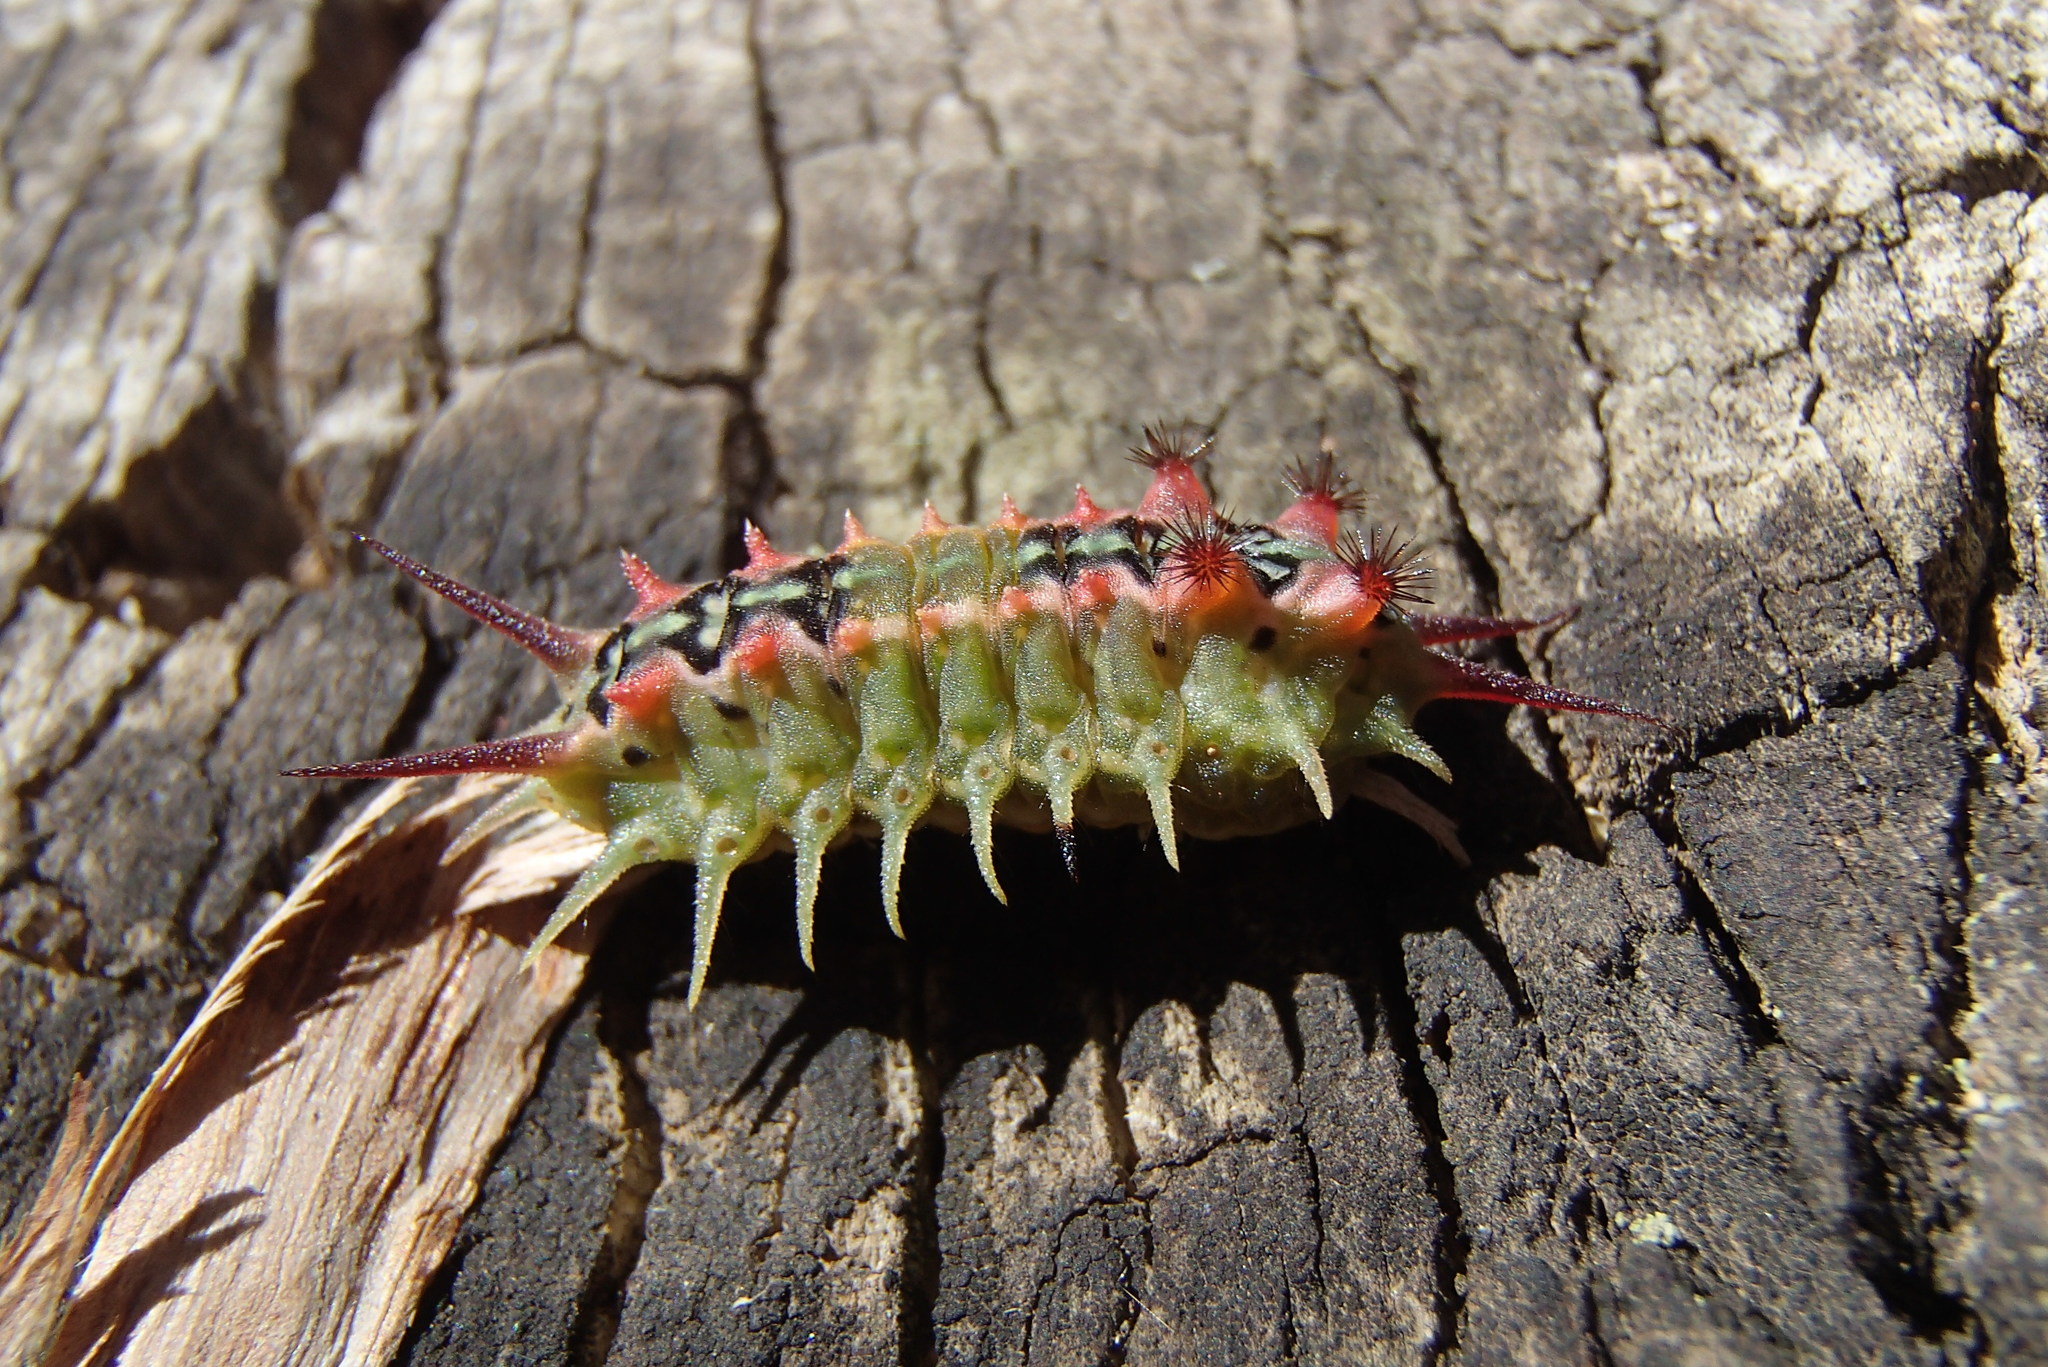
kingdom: Animalia
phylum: Arthropoda
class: Insecta
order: Lepidoptera
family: Limacodidae
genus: Doratifera
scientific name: Doratifera quadriguttata
